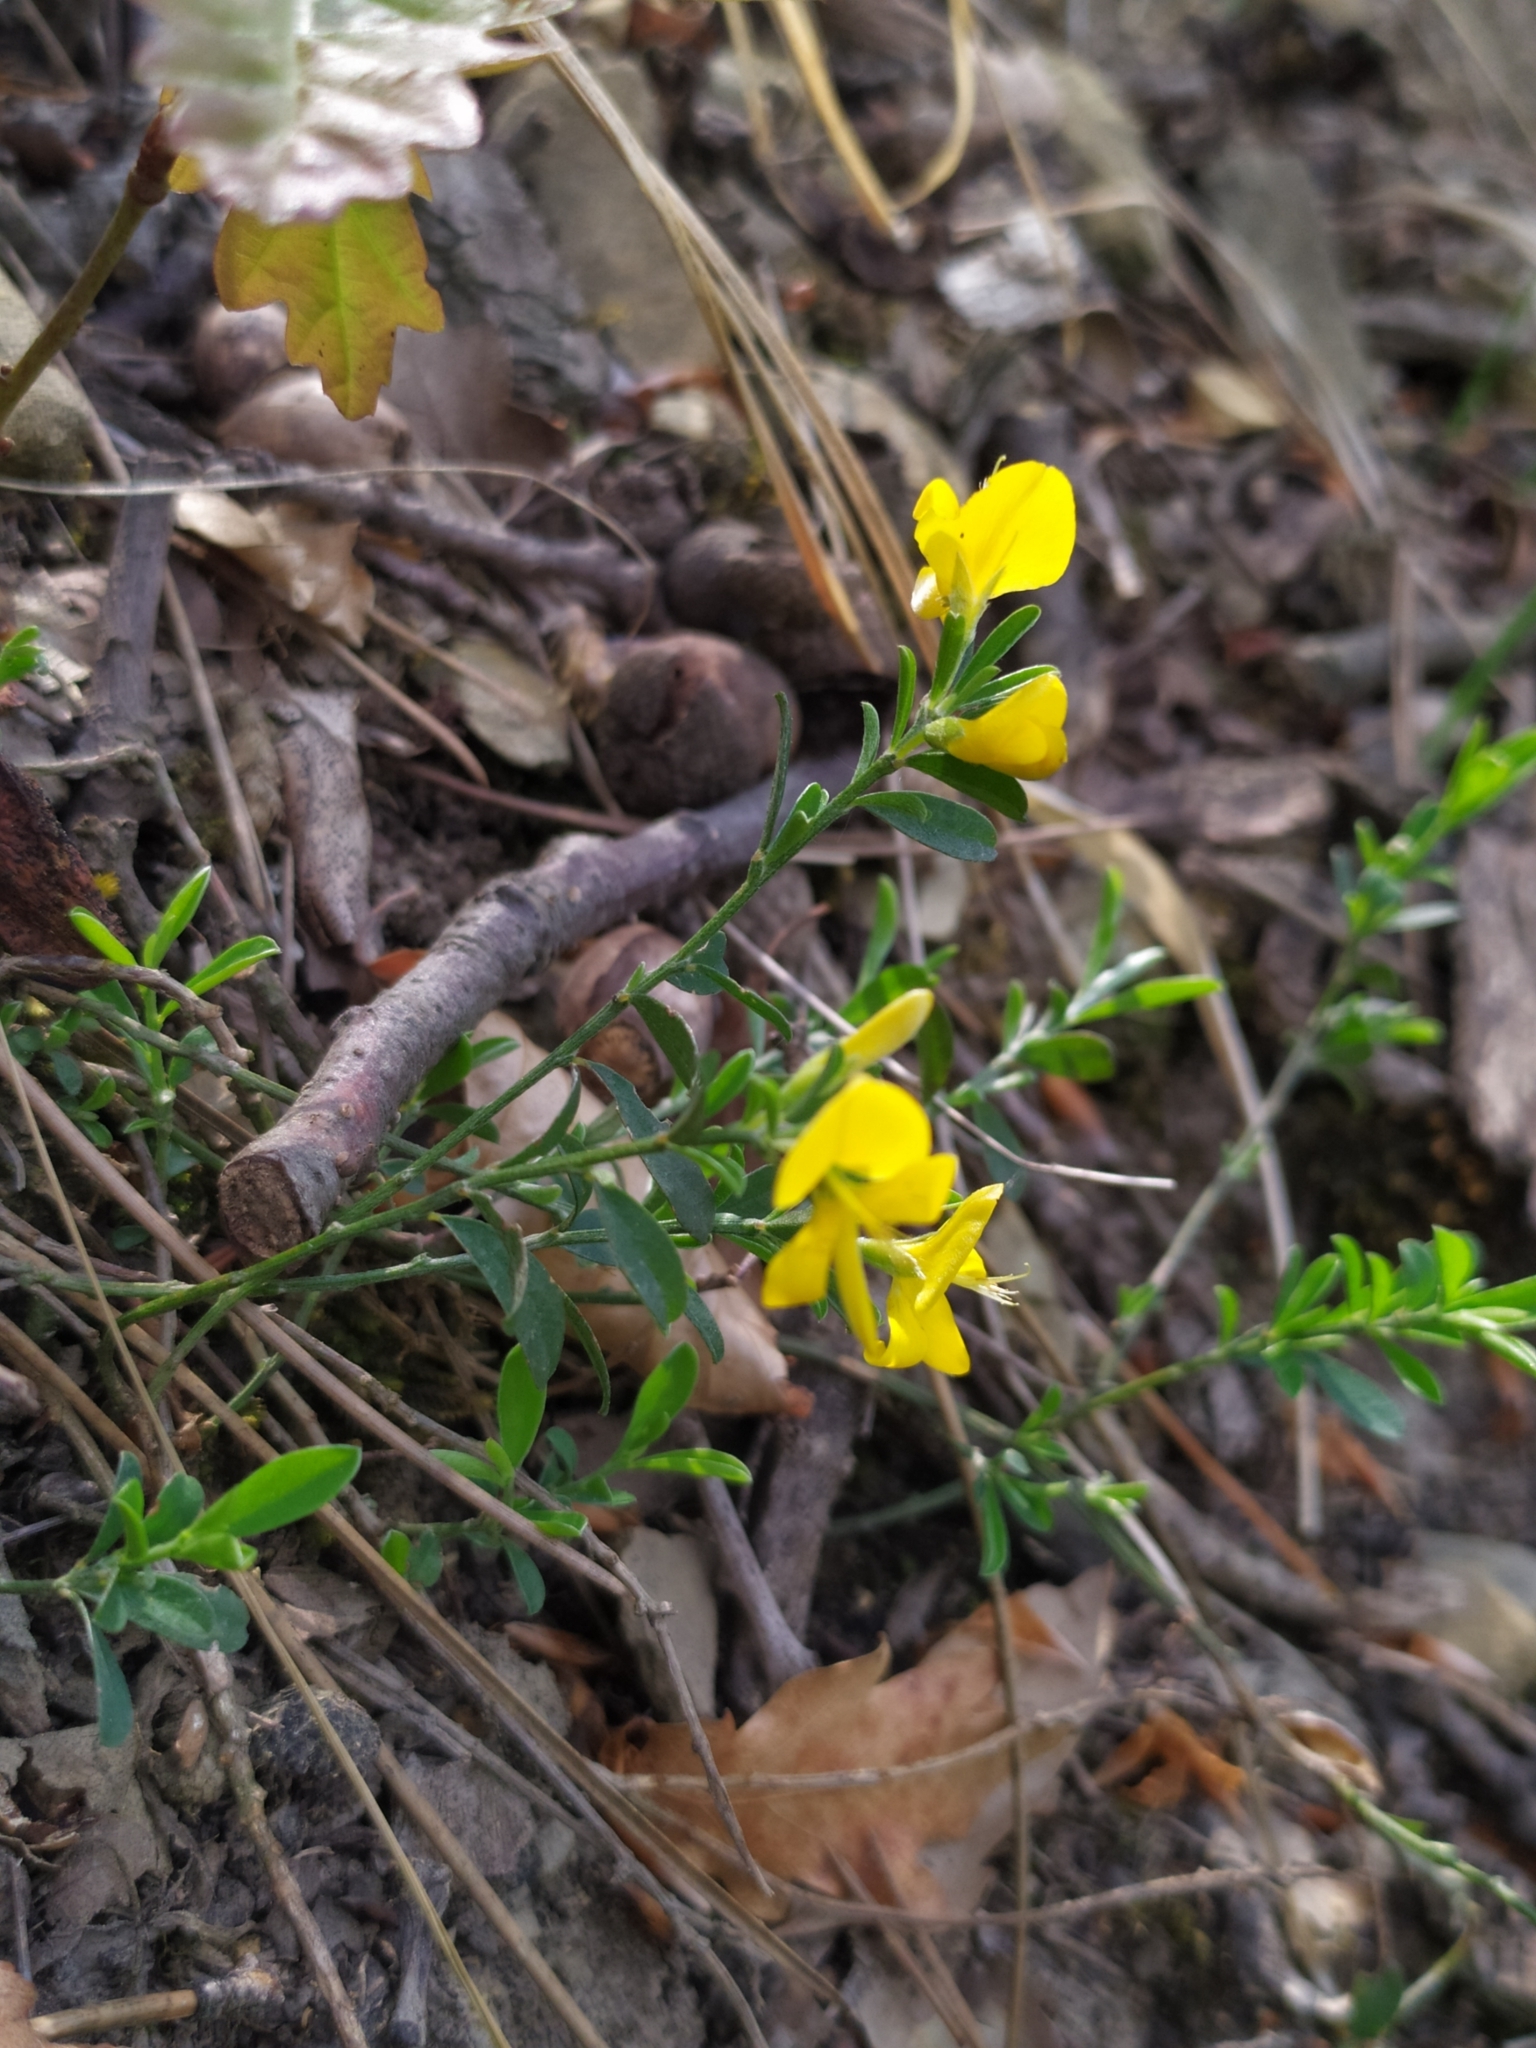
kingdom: Plantae
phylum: Tracheophyta
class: Magnoliopsida
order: Fabales
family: Fabaceae
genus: Genista
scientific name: Genista pilosa
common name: Hairy greenweed
